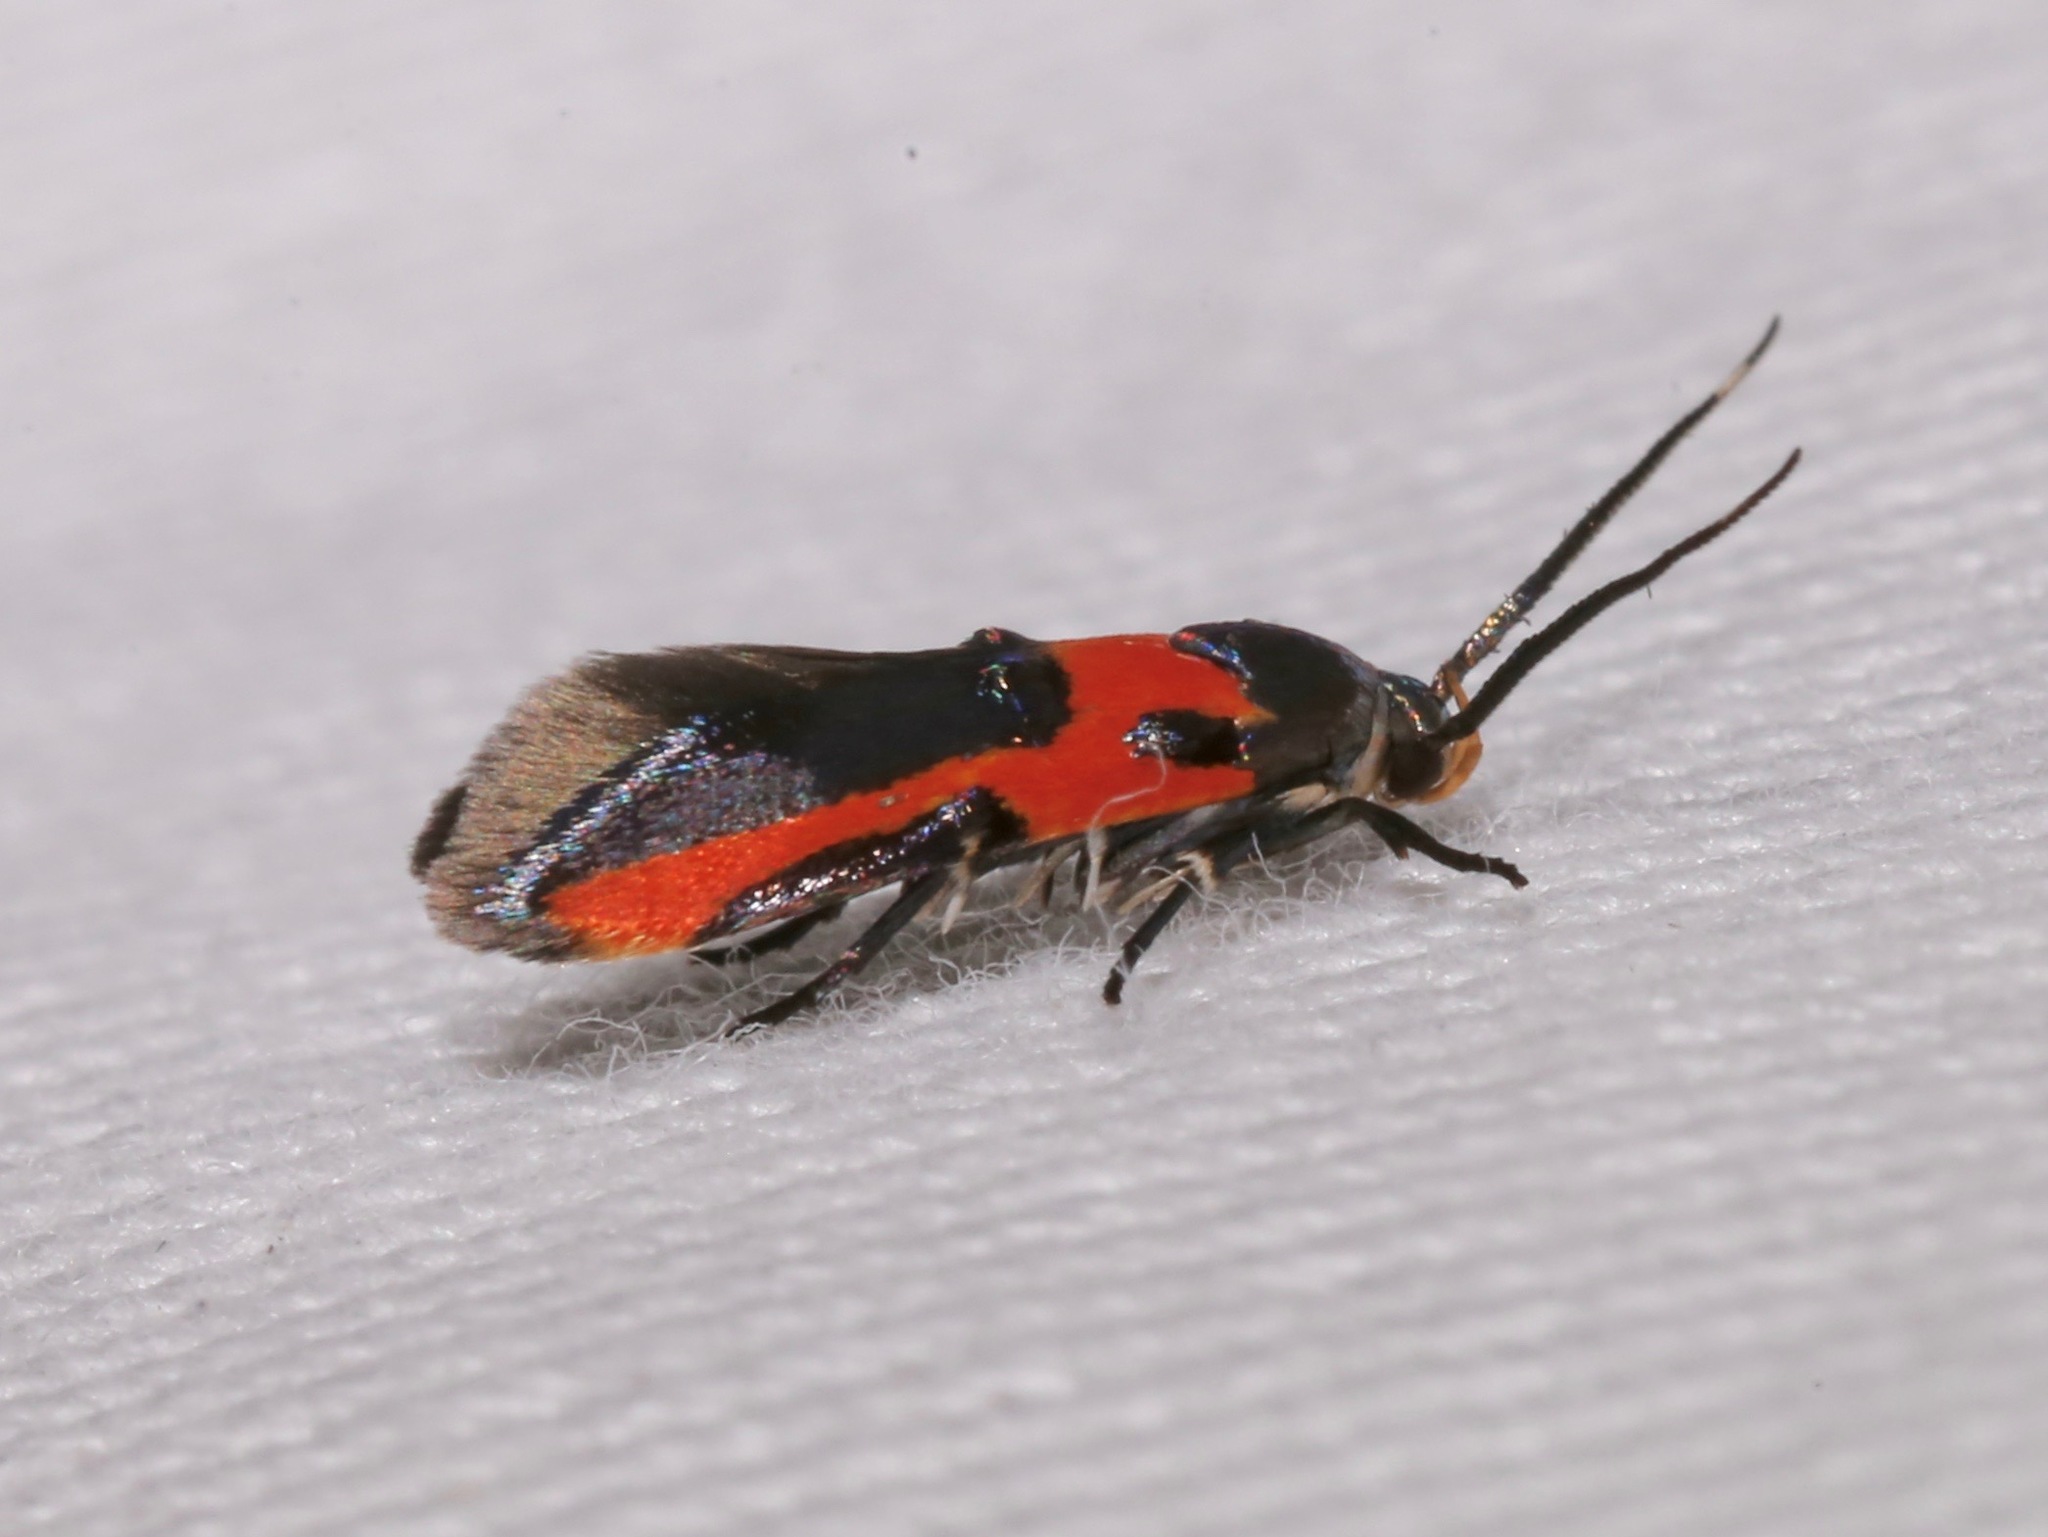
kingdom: Animalia
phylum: Arthropoda
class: Insecta
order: Lepidoptera
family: Cosmopterigidae
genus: Euclemensia
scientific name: Euclemensia bassettella
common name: Kermes scale moth
